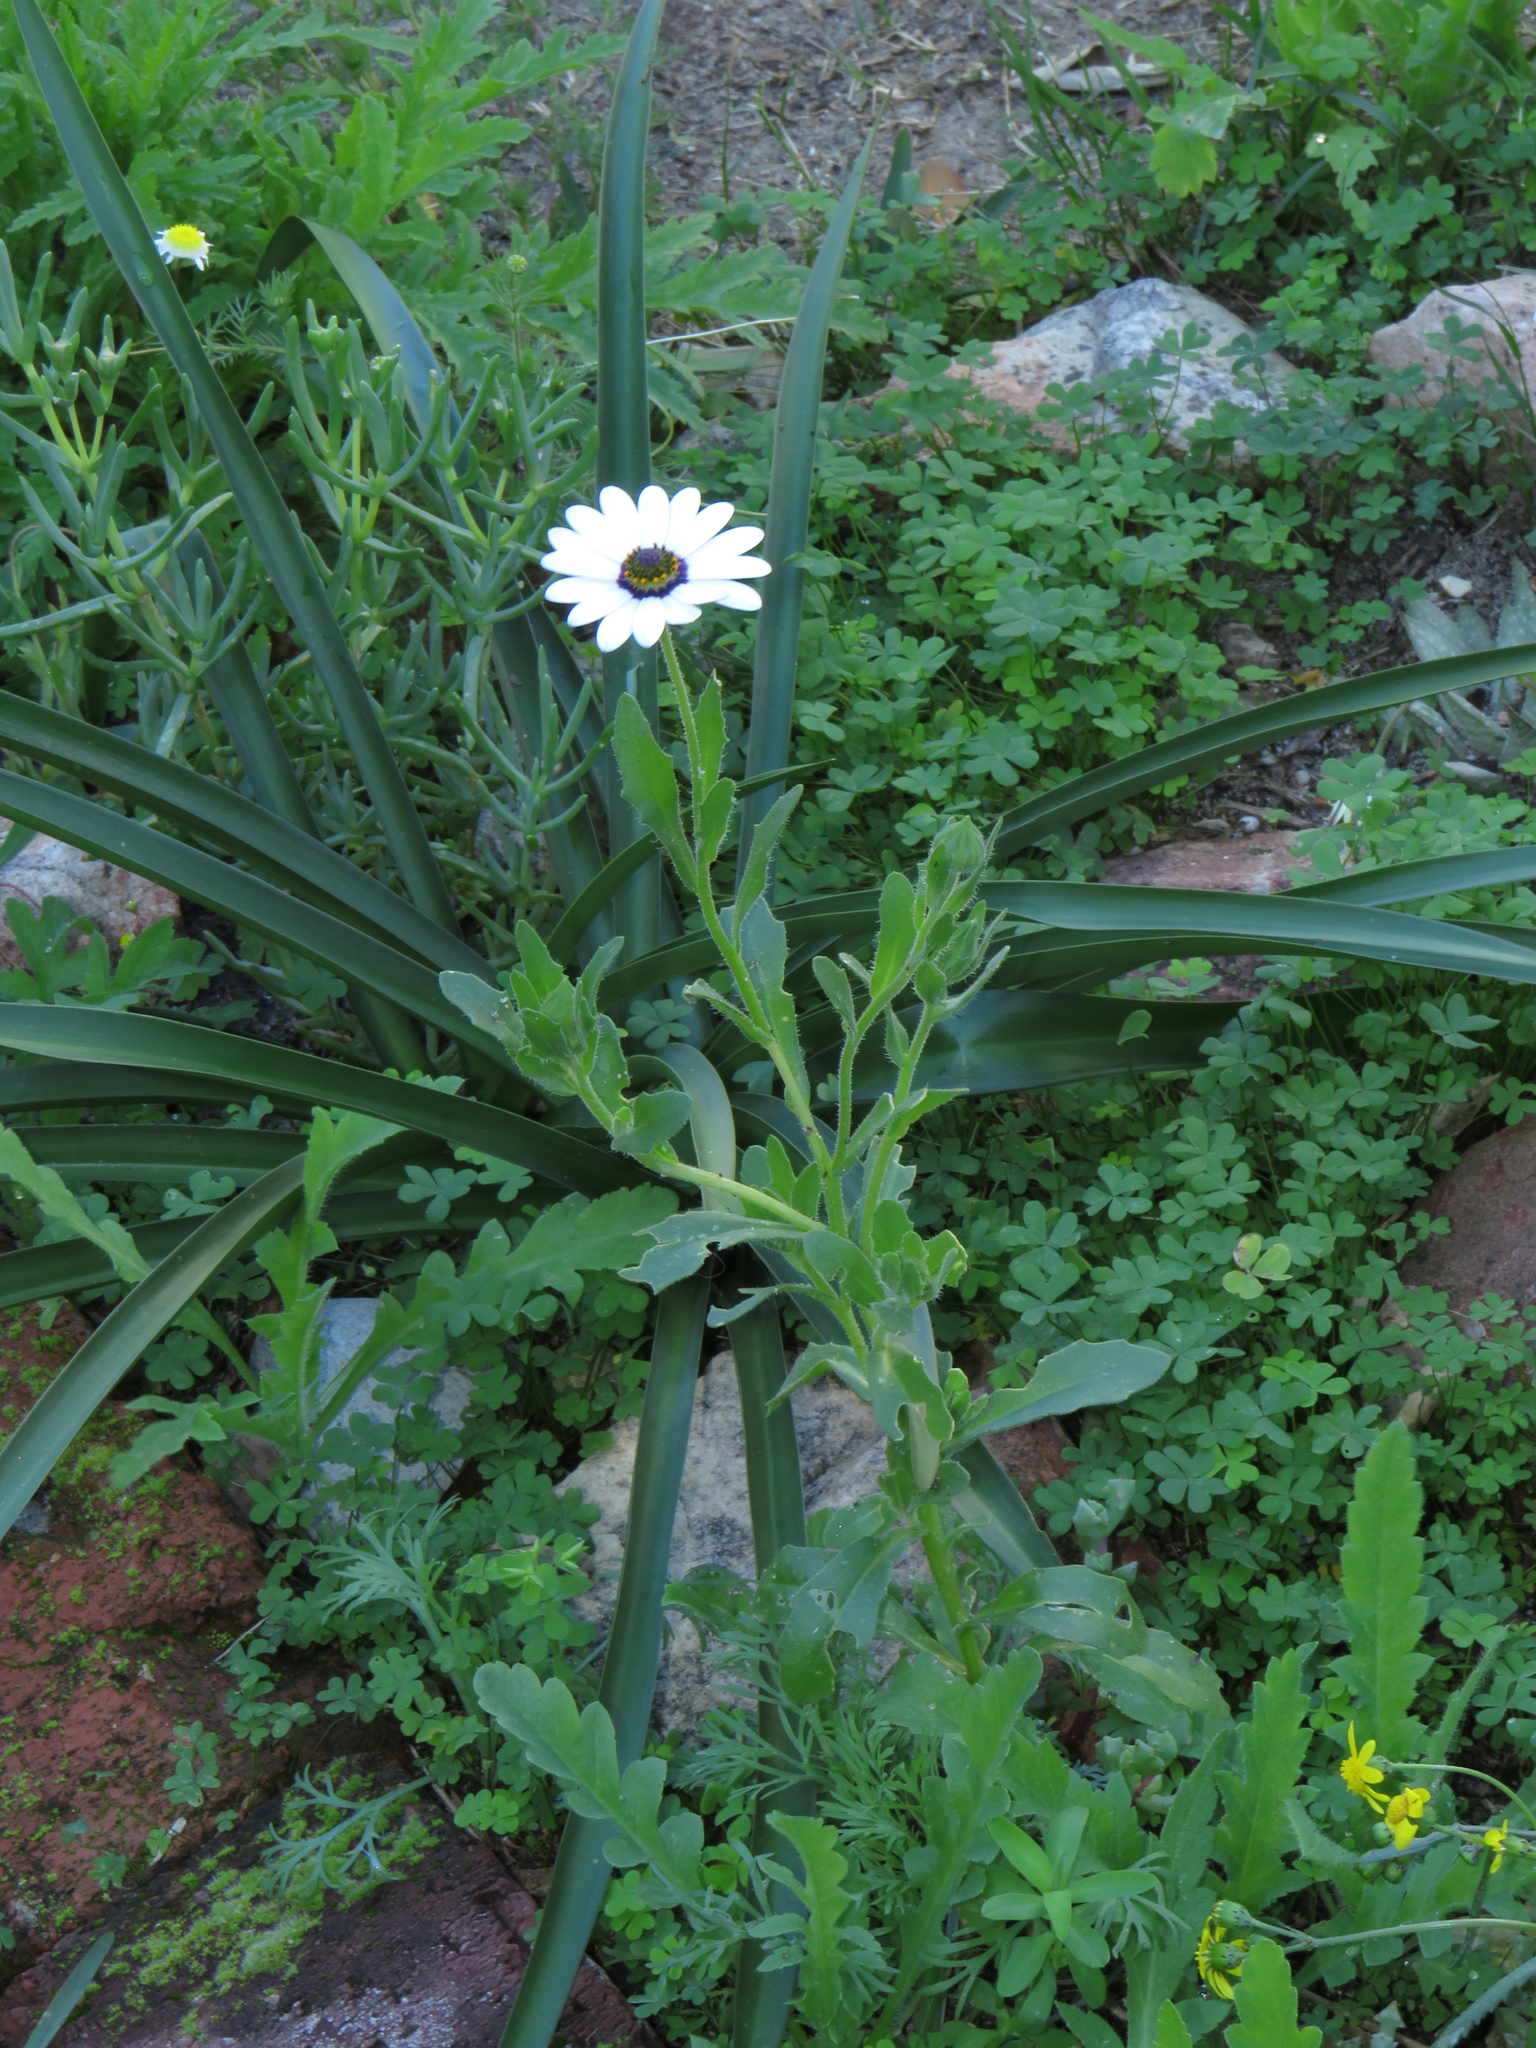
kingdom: Plantae
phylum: Tracheophyta
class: Magnoliopsida
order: Asterales
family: Asteraceae
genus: Dimorphotheca
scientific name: Dimorphotheca pluvialis
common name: Weather prophet
